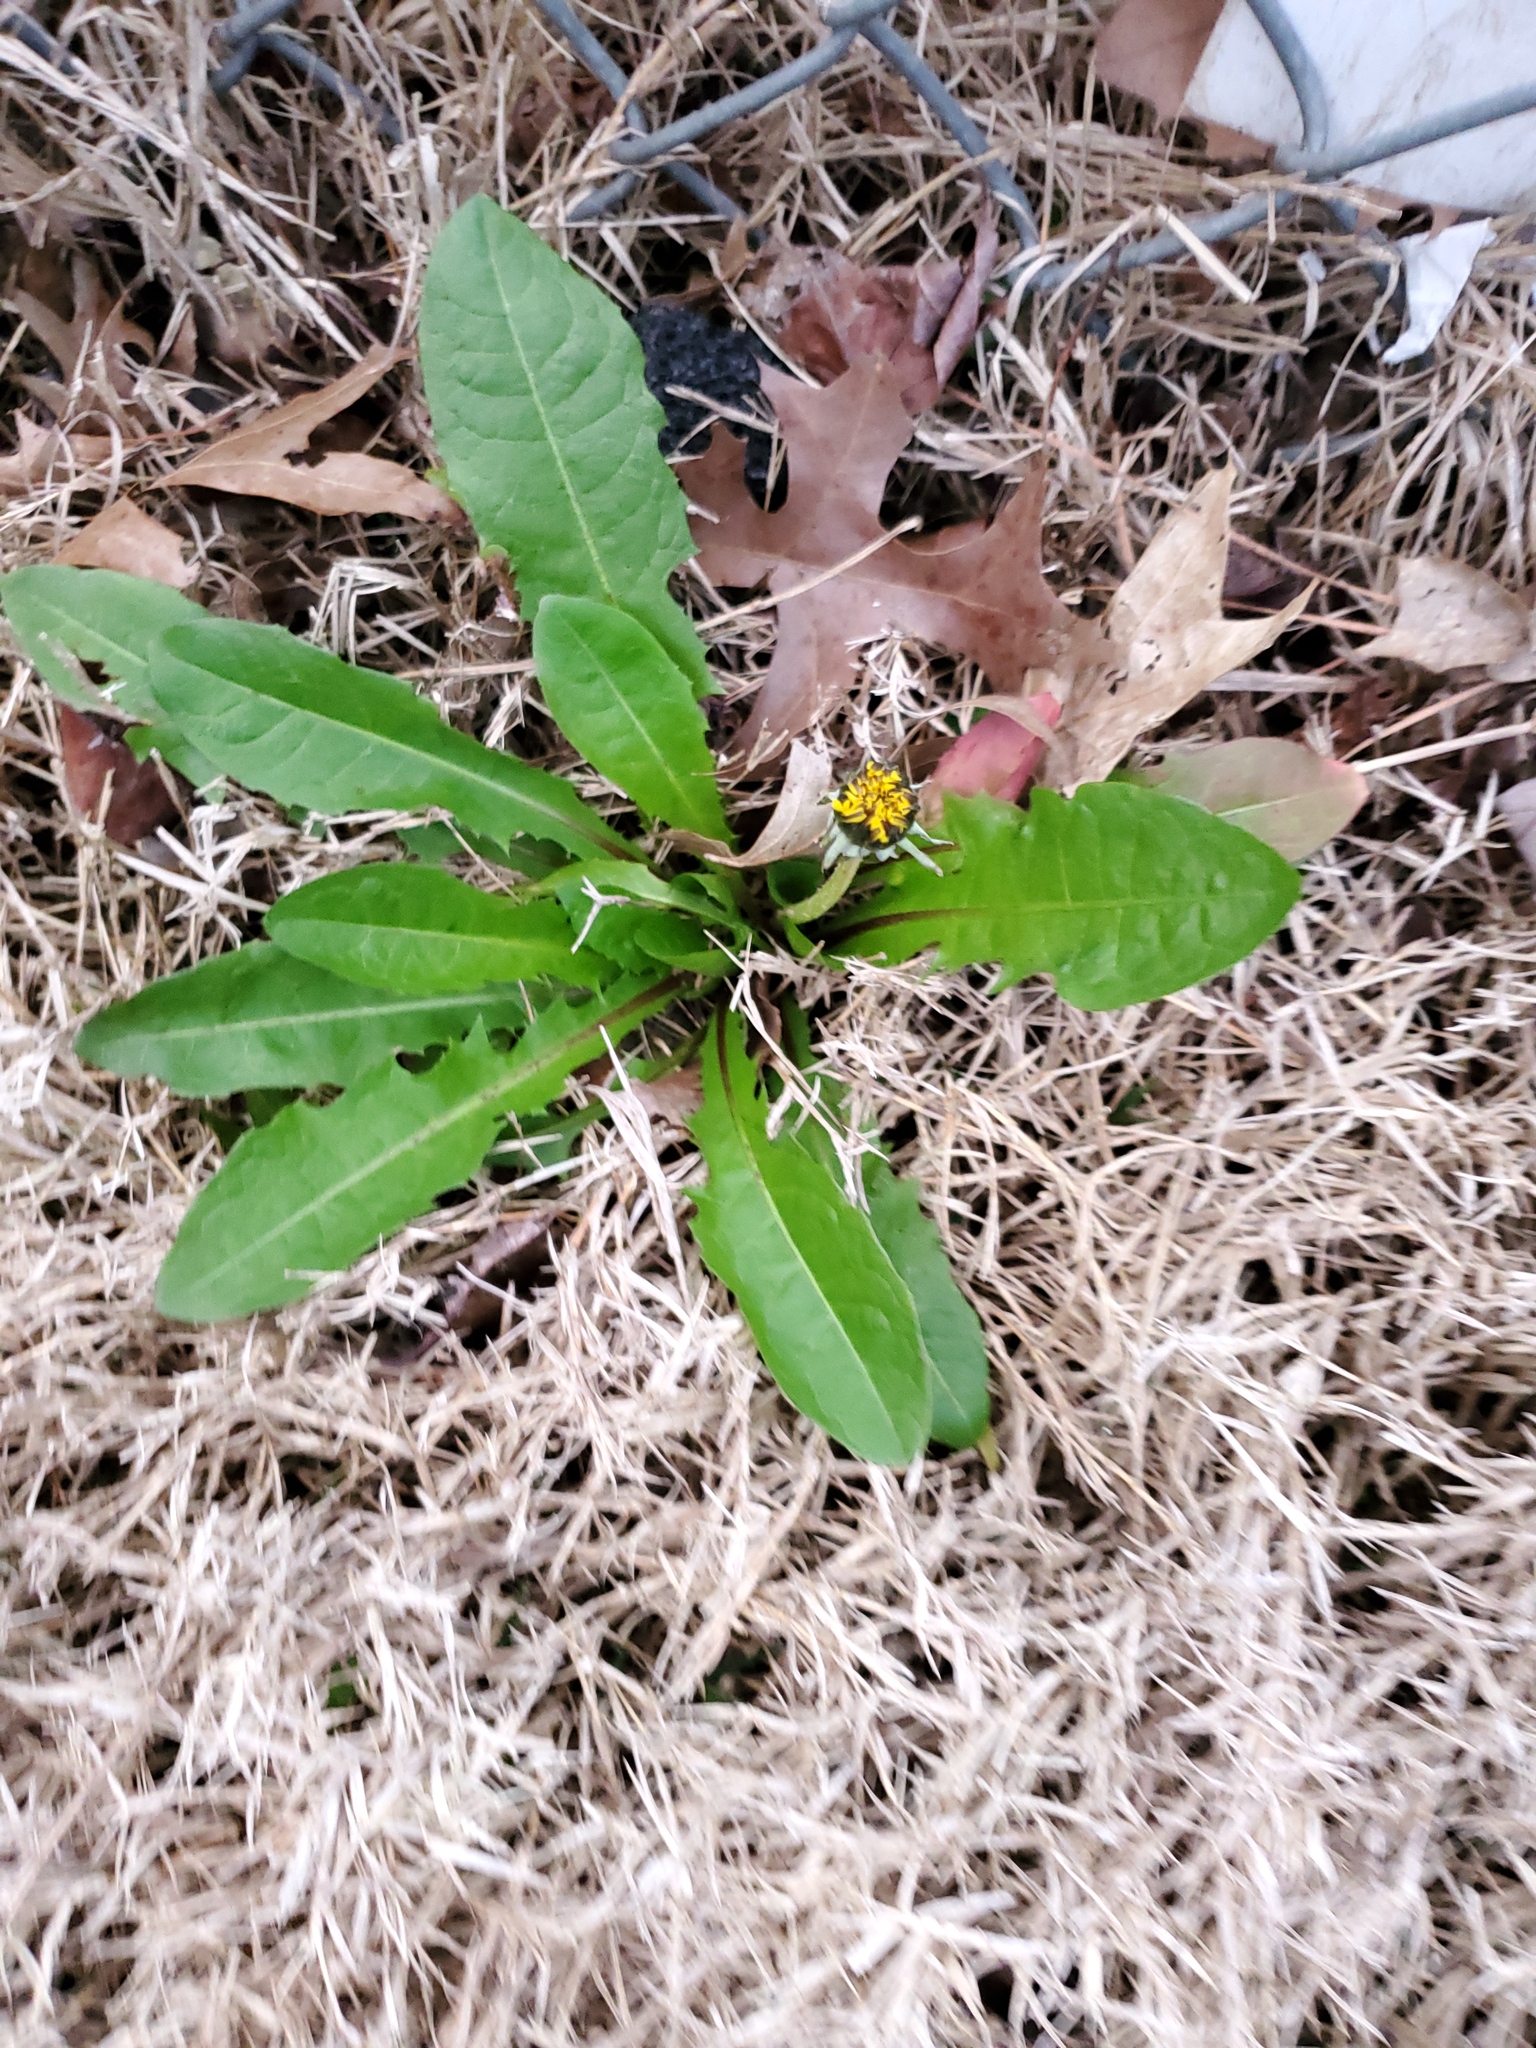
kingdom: Plantae
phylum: Tracheophyta
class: Magnoliopsida
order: Asterales
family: Asteraceae
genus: Taraxacum
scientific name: Taraxacum officinale
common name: Common dandelion
